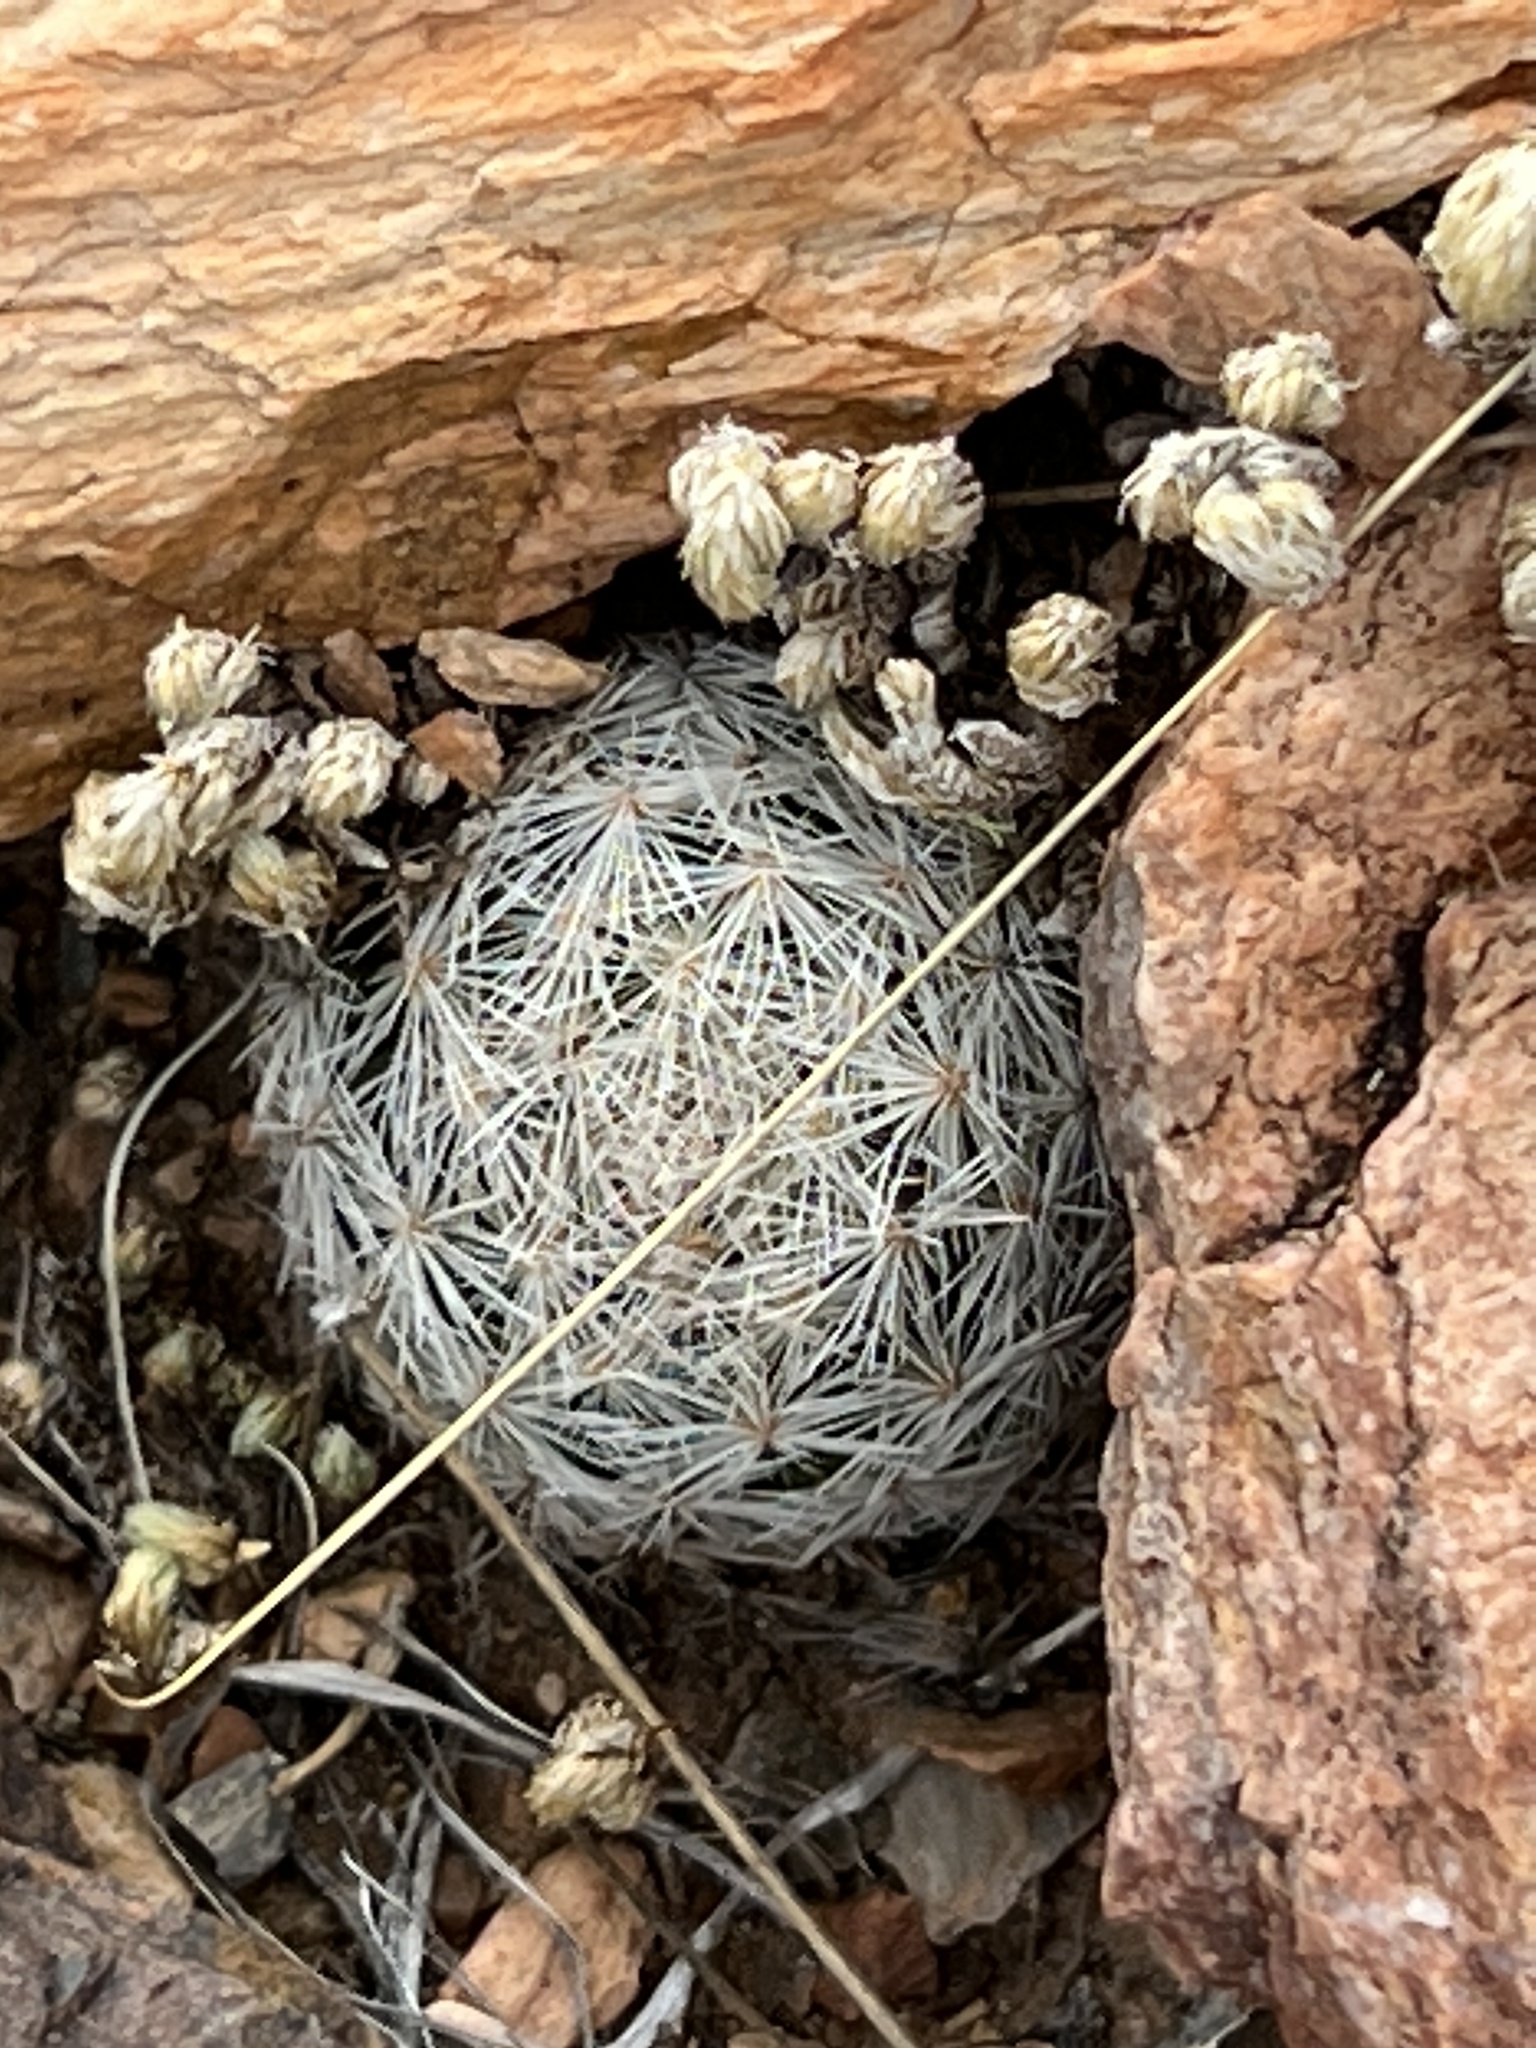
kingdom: Plantae
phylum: Tracheophyta
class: Magnoliopsida
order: Caryophyllales
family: Cactaceae
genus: Mammillaria
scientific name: Mammillaria lasiacantha
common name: Lace-spine nipple cactus
